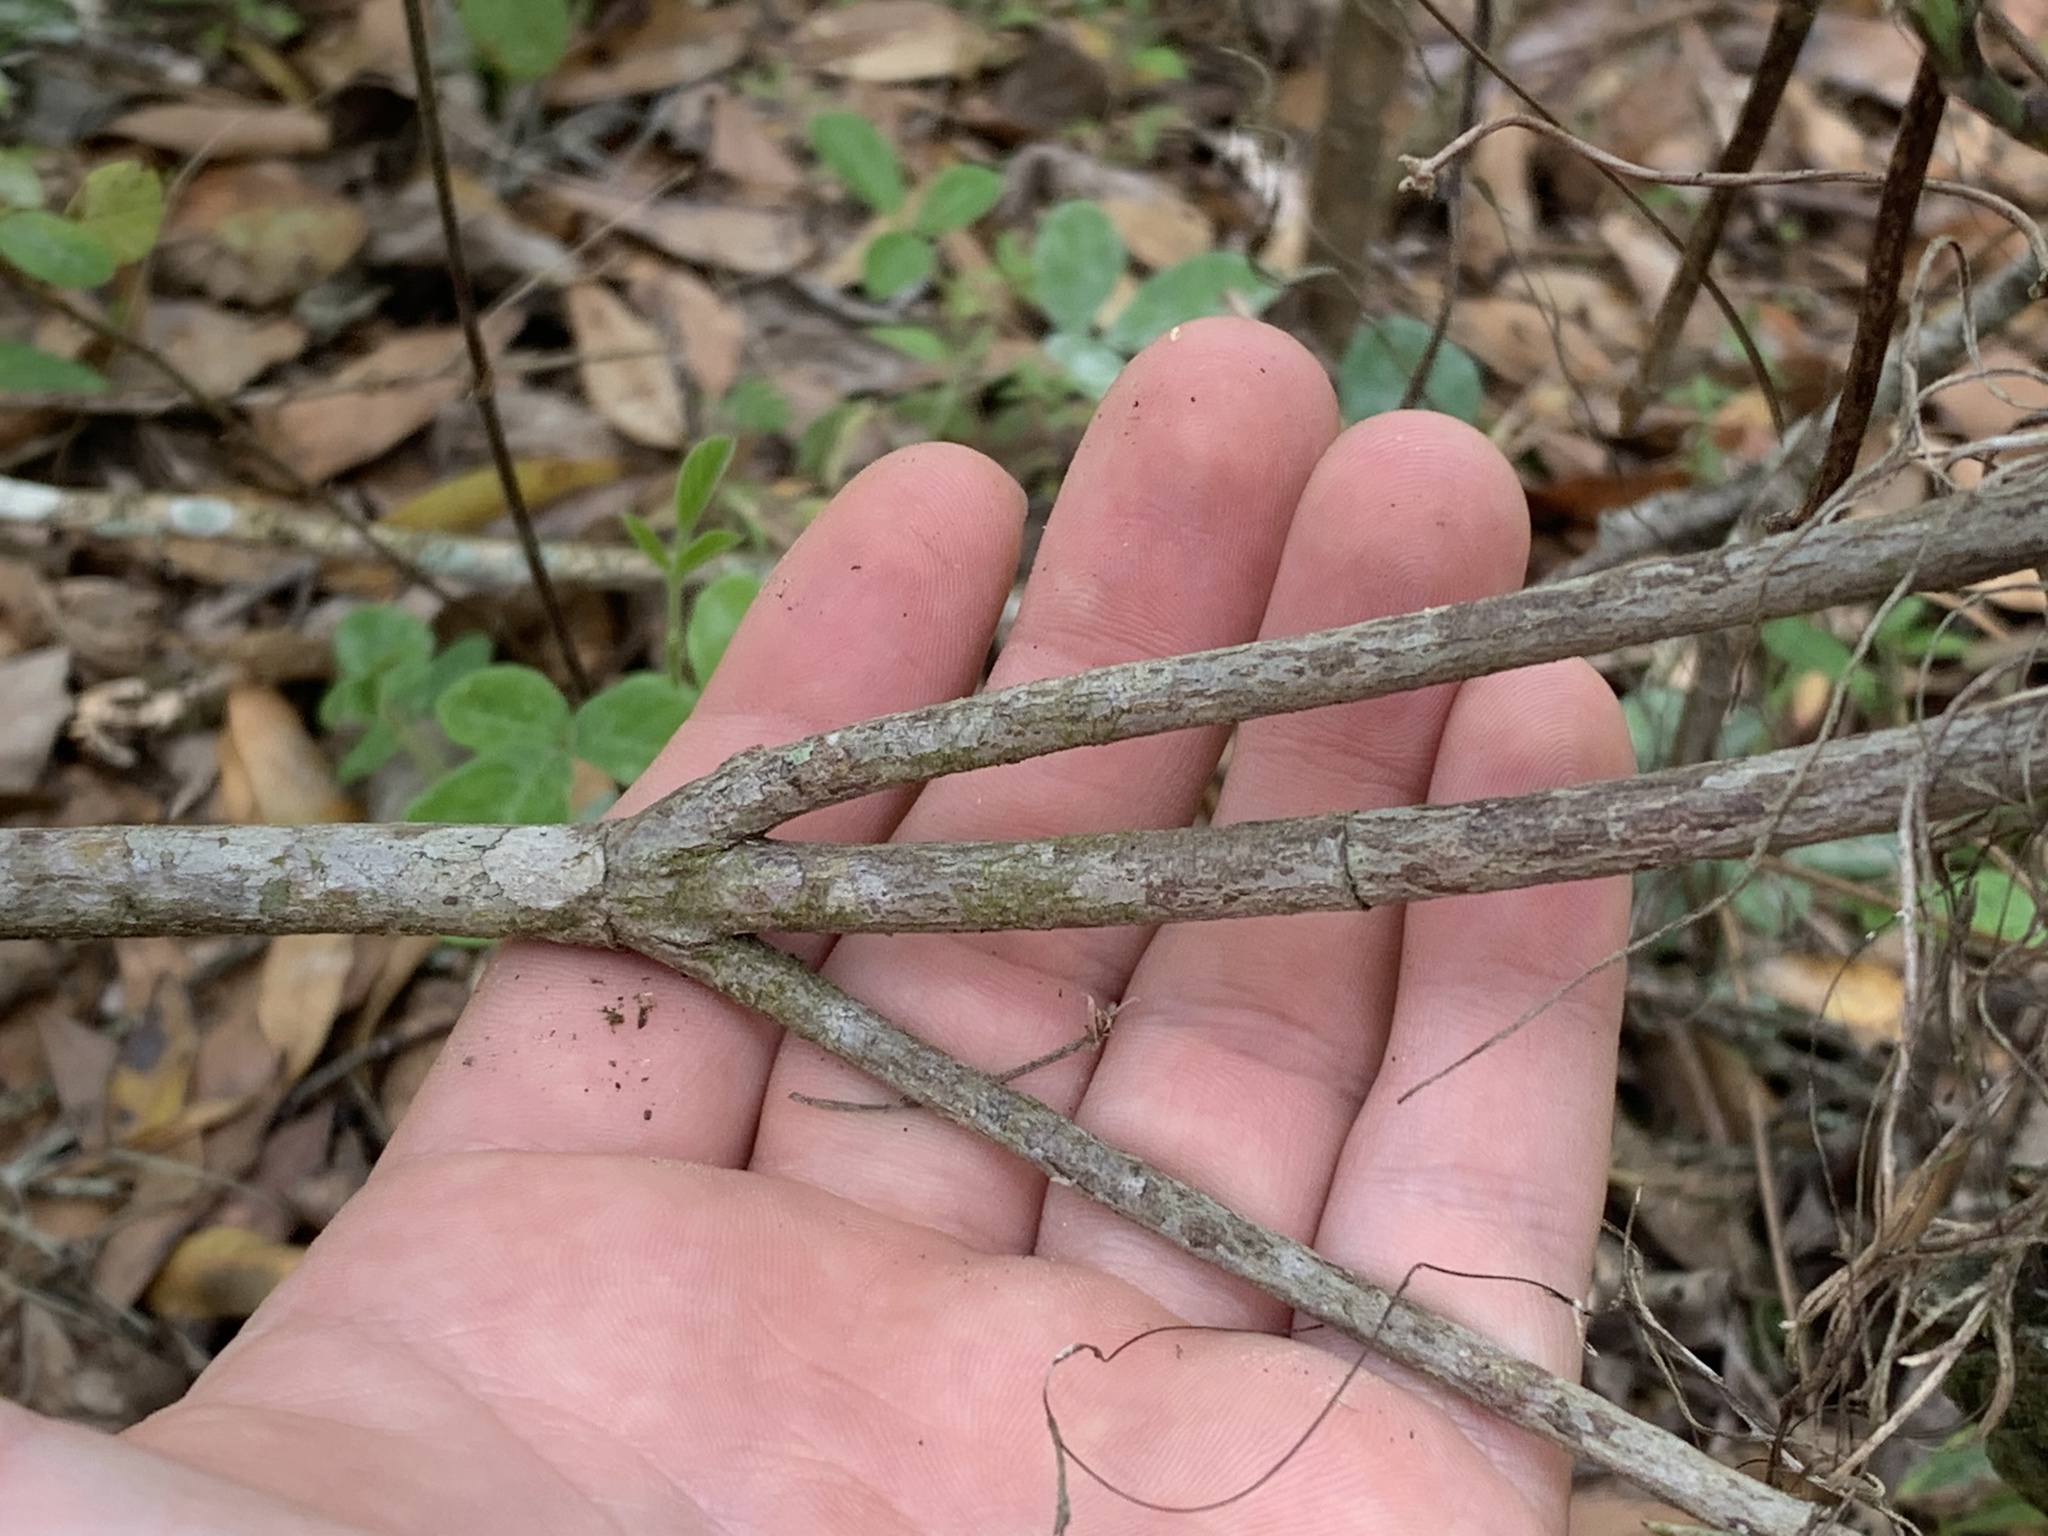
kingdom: Plantae
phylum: Tracheophyta
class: Magnoliopsida
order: Cornales
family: Cornaceae
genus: Cornus
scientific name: Cornus florida
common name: Flowering dogwood
